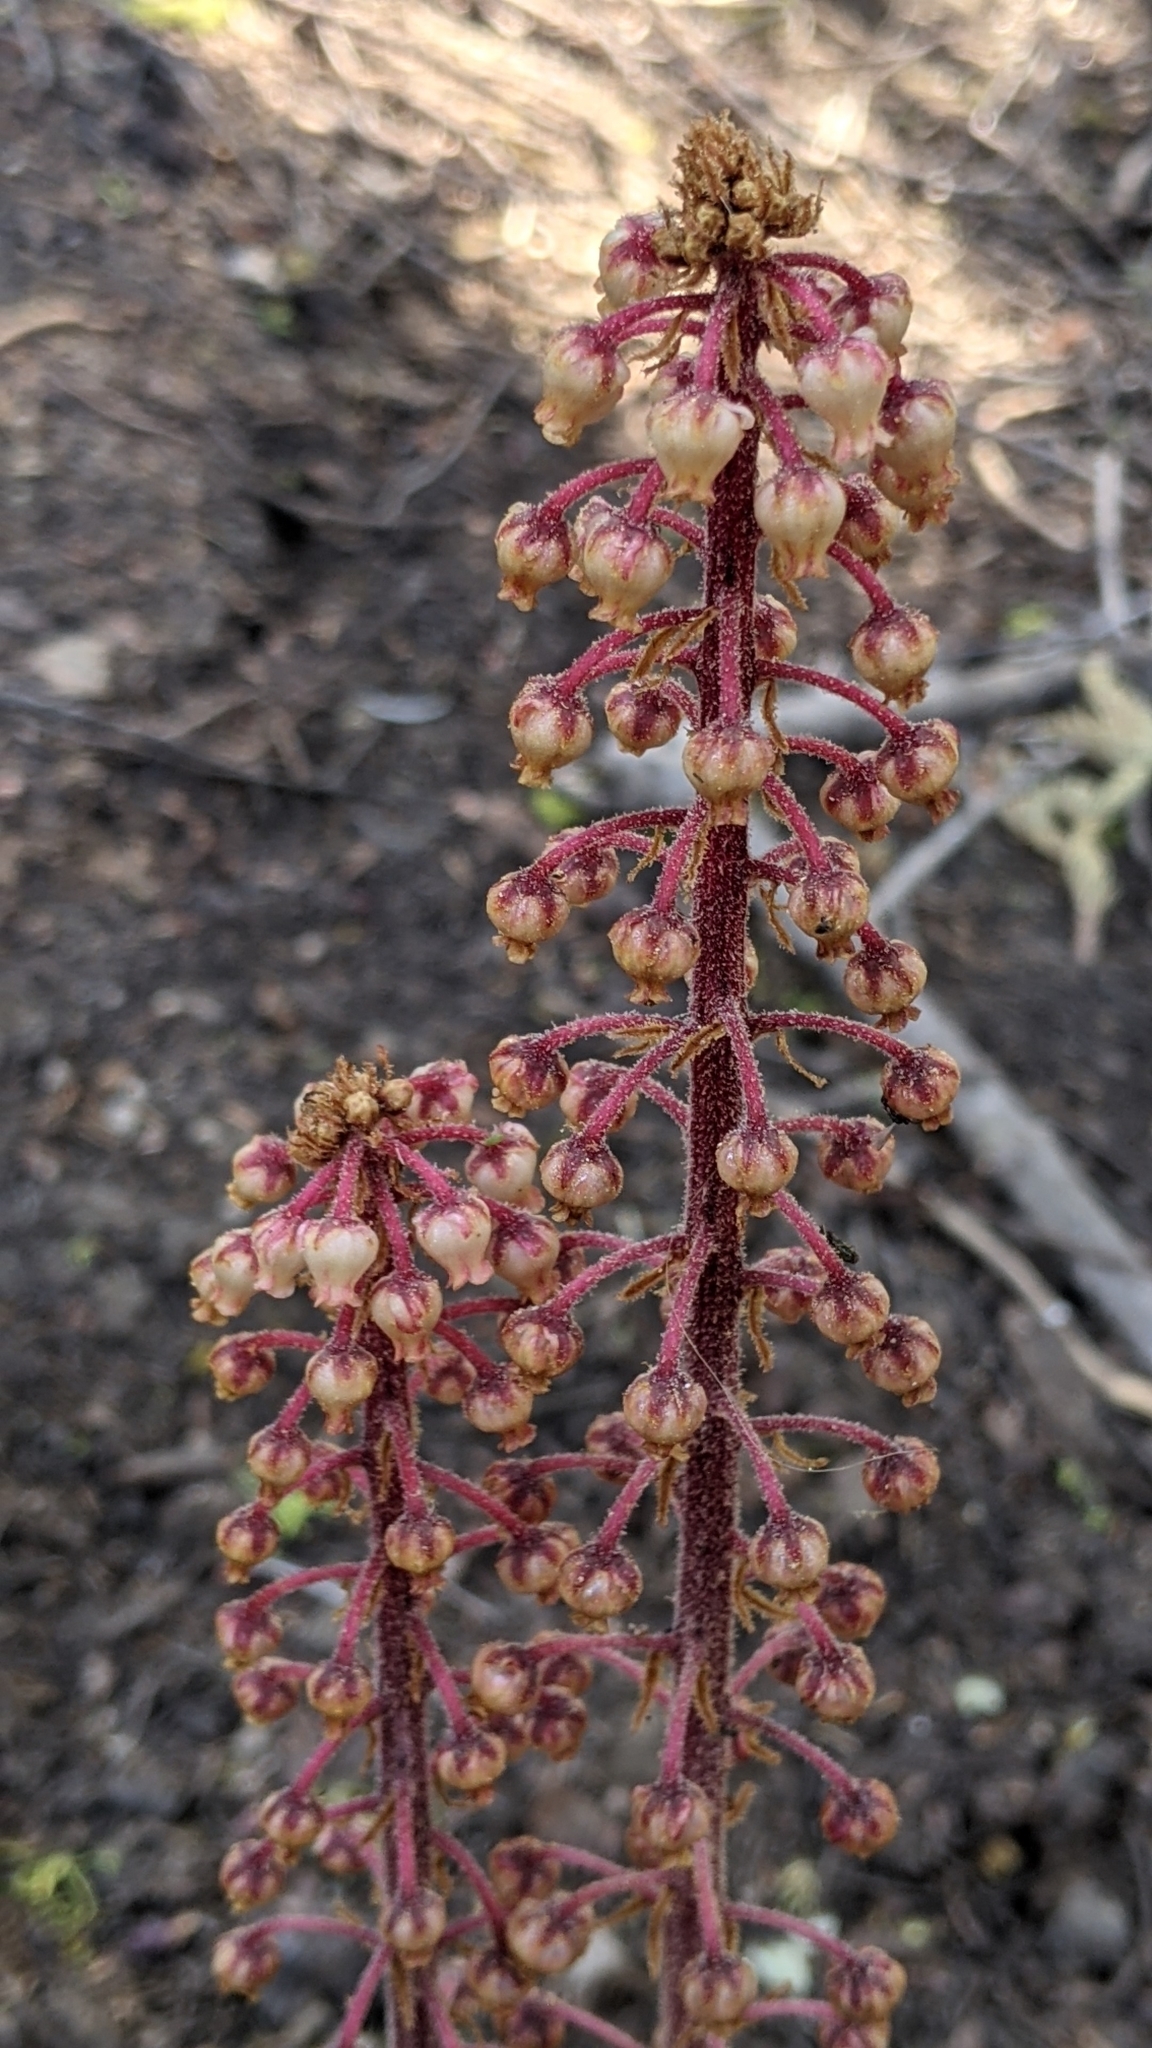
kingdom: Plantae
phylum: Tracheophyta
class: Magnoliopsida
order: Ericales
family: Ericaceae
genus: Pterospora
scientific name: Pterospora andromedea
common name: Giant bird's-nest
